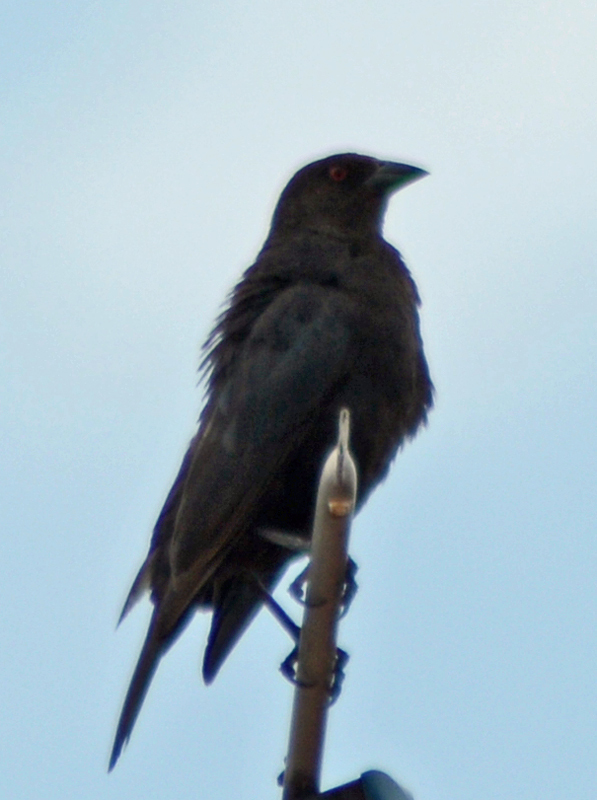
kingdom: Animalia
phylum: Chordata
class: Aves
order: Passeriformes
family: Icteridae
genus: Molothrus
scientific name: Molothrus aeneus
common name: Bronzed cowbird
